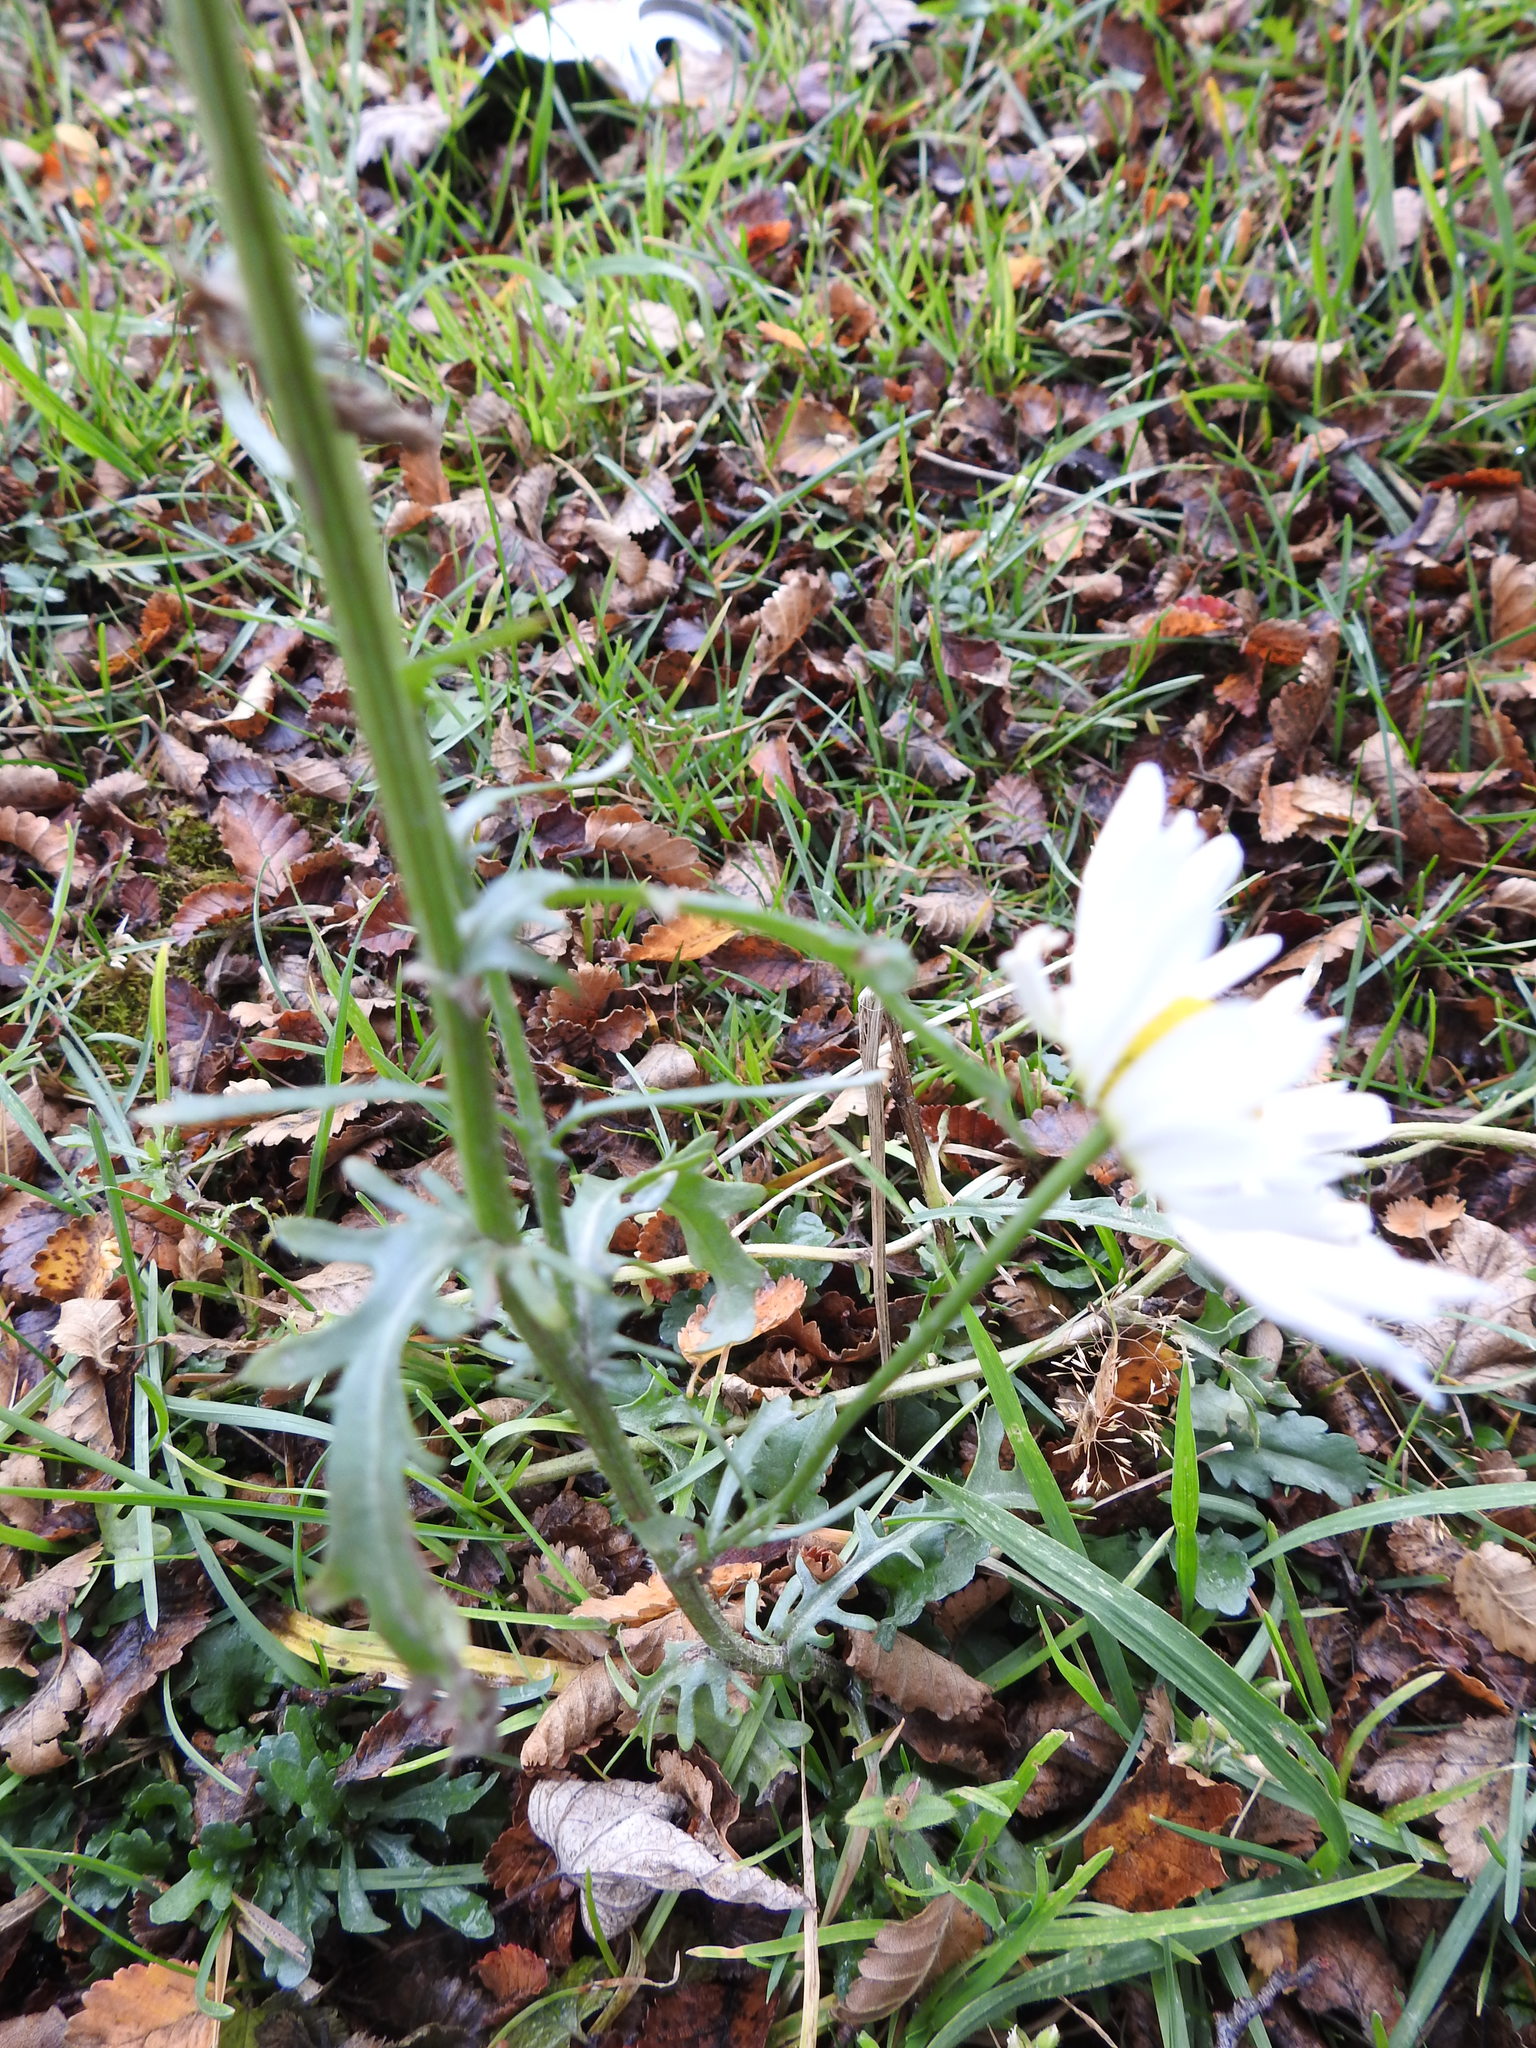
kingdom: Plantae
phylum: Tracheophyta
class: Magnoliopsida
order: Asterales
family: Asteraceae
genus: Leucanthemum
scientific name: Leucanthemum vulgare
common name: Oxeye daisy
